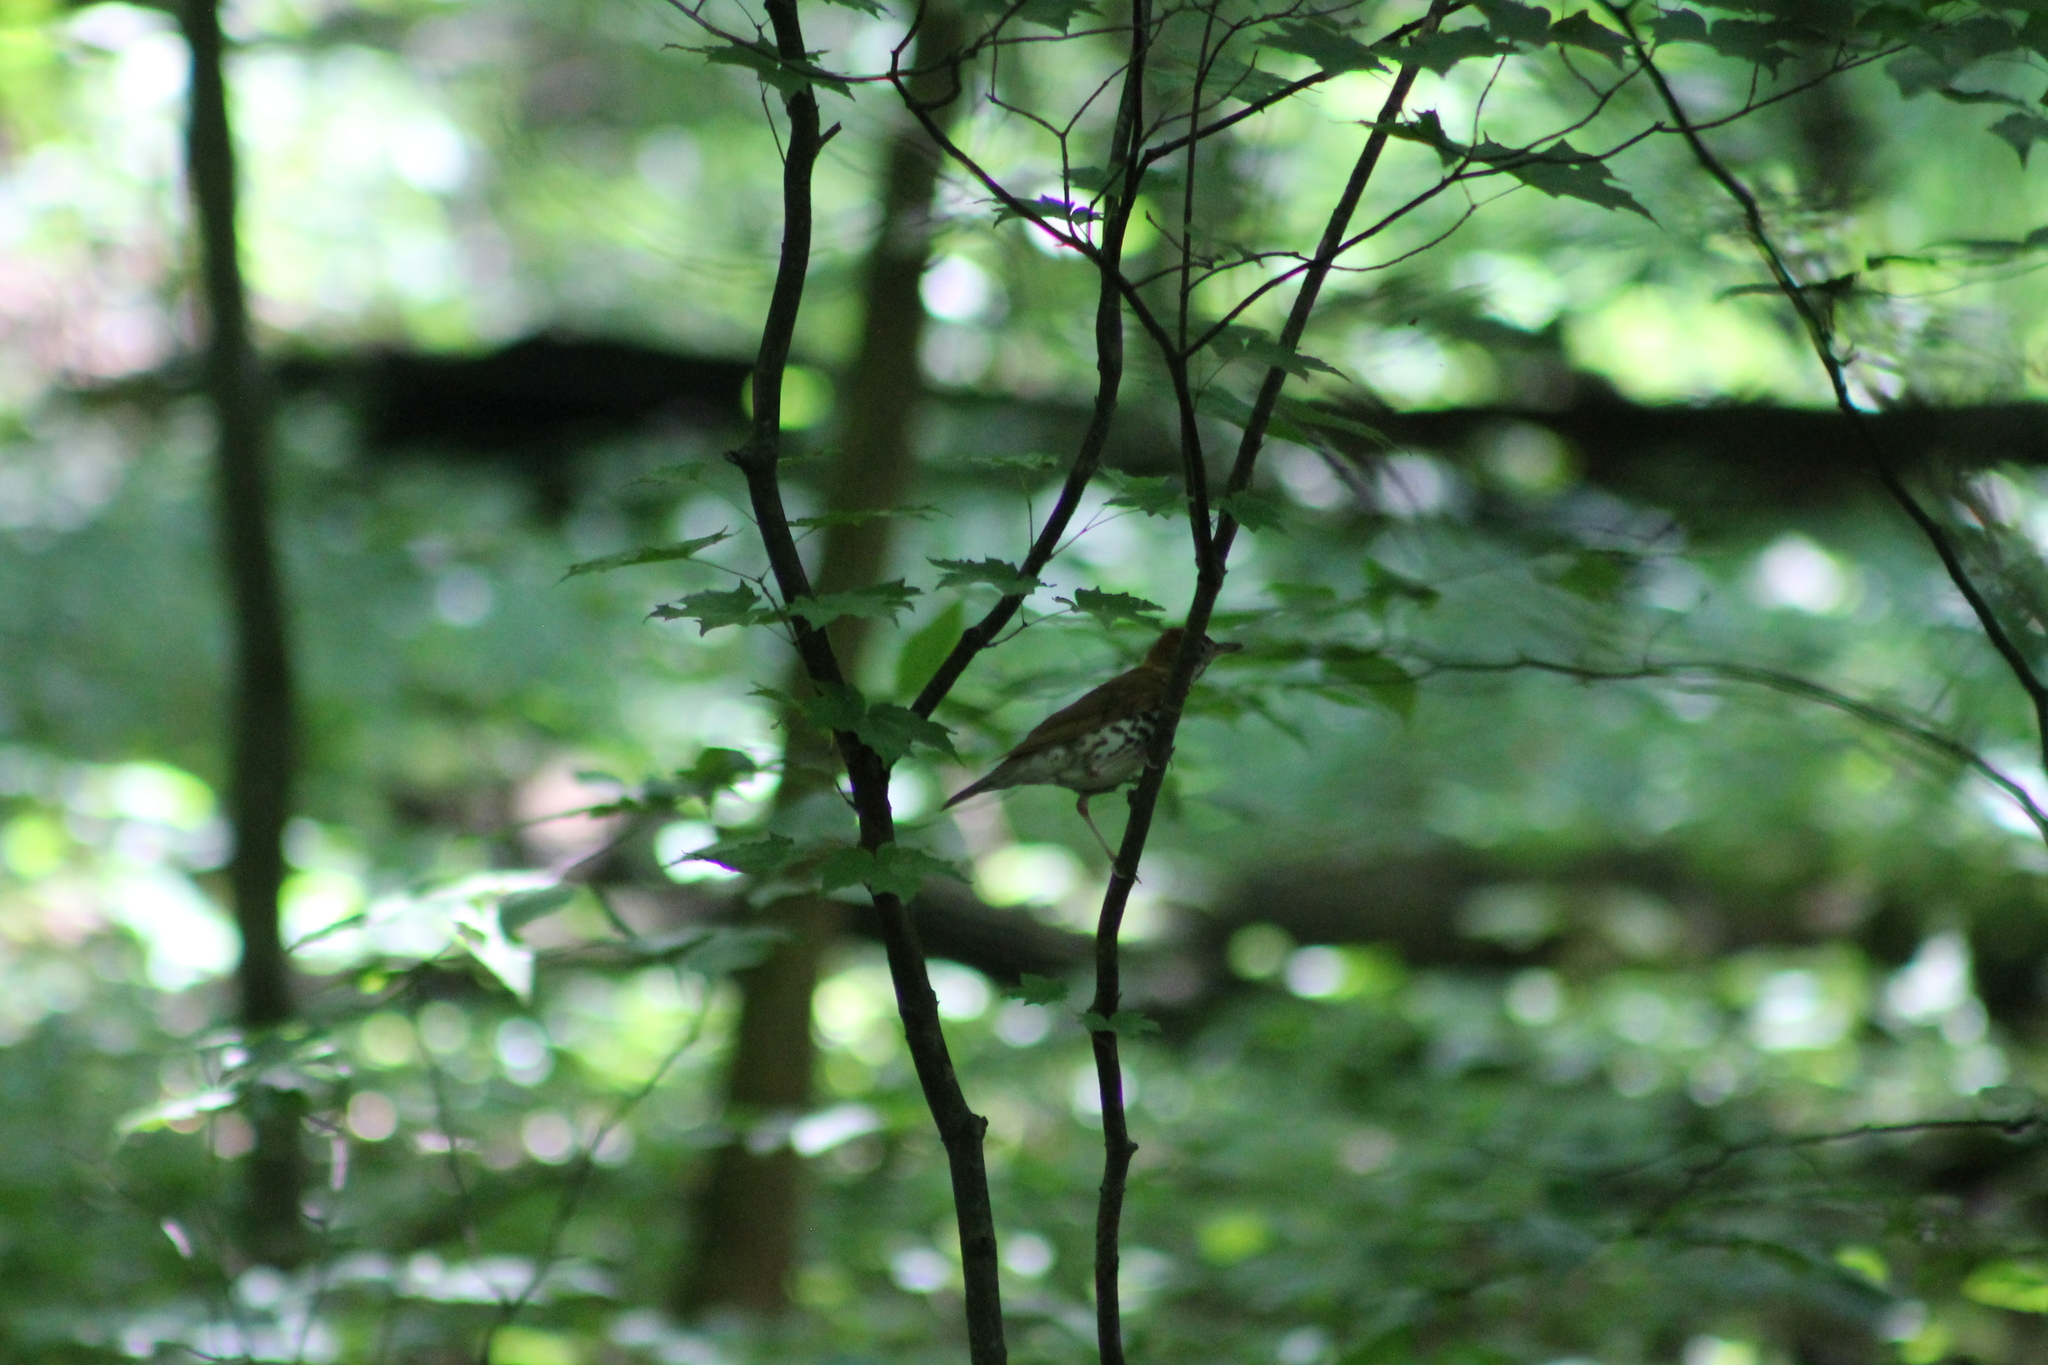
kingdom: Animalia
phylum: Chordata
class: Aves
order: Passeriformes
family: Turdidae
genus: Hylocichla
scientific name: Hylocichla mustelina
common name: Wood thrush
